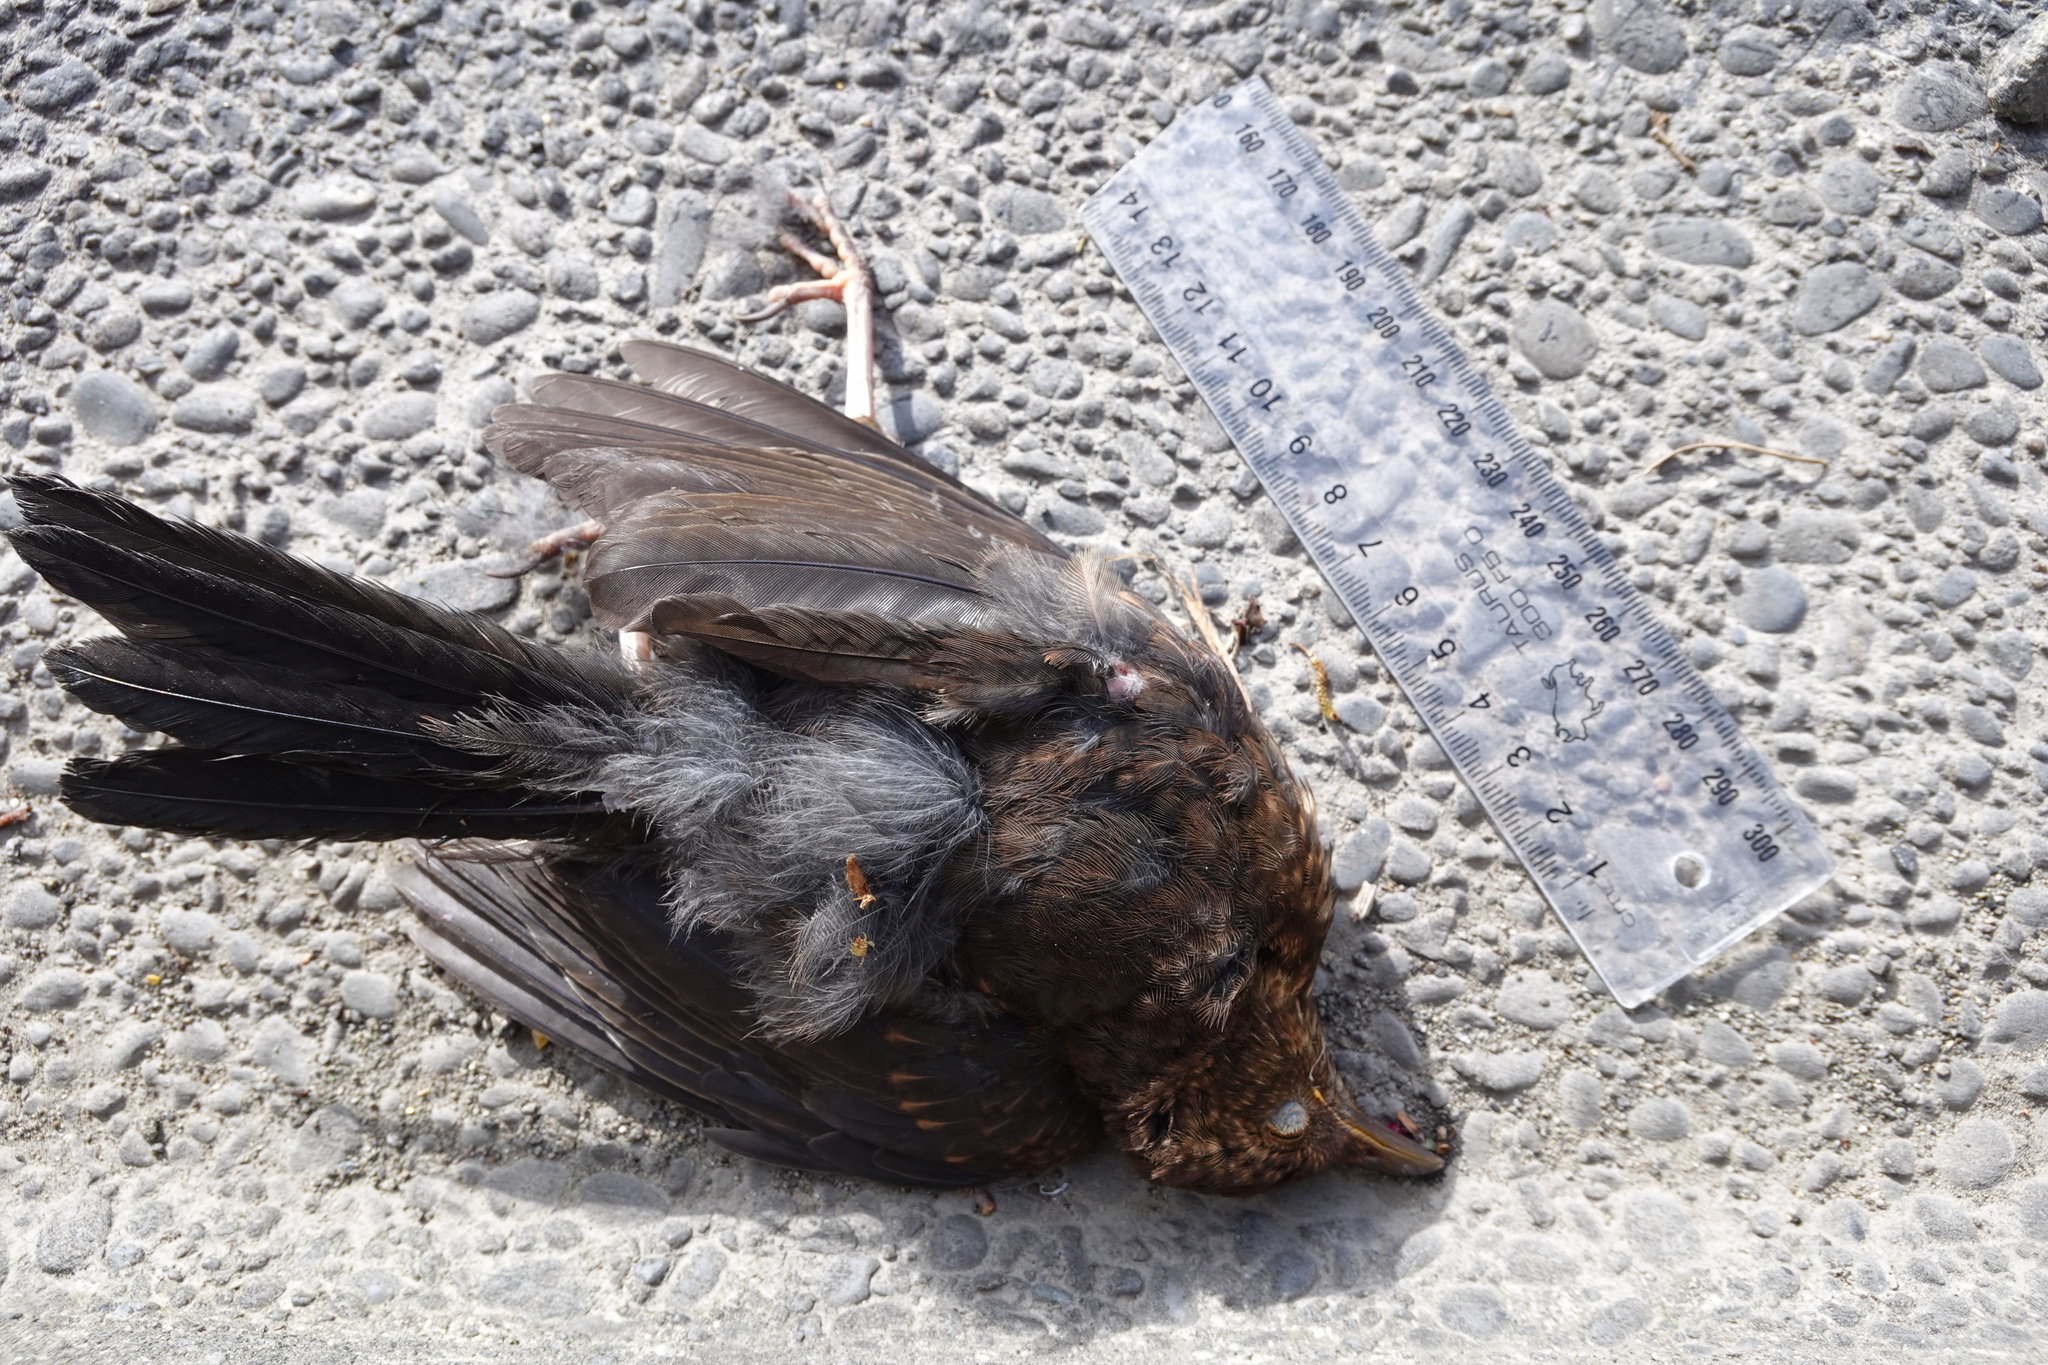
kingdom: Animalia
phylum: Chordata
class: Aves
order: Passeriformes
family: Turdidae
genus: Turdus
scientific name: Turdus merula
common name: Common blackbird
